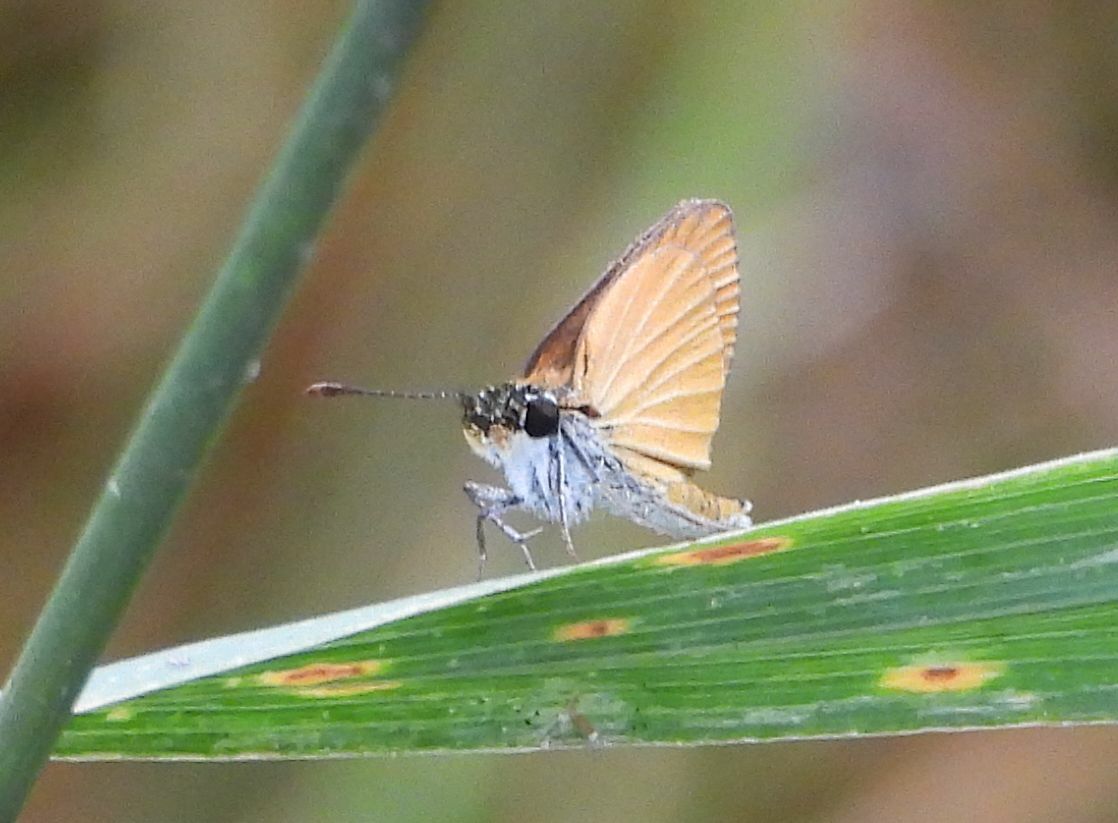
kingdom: Animalia
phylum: Arthropoda
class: Insecta
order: Lepidoptera
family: Hesperiidae
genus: Ancyloxypha
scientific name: Ancyloxypha numitor
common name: Least skipper
